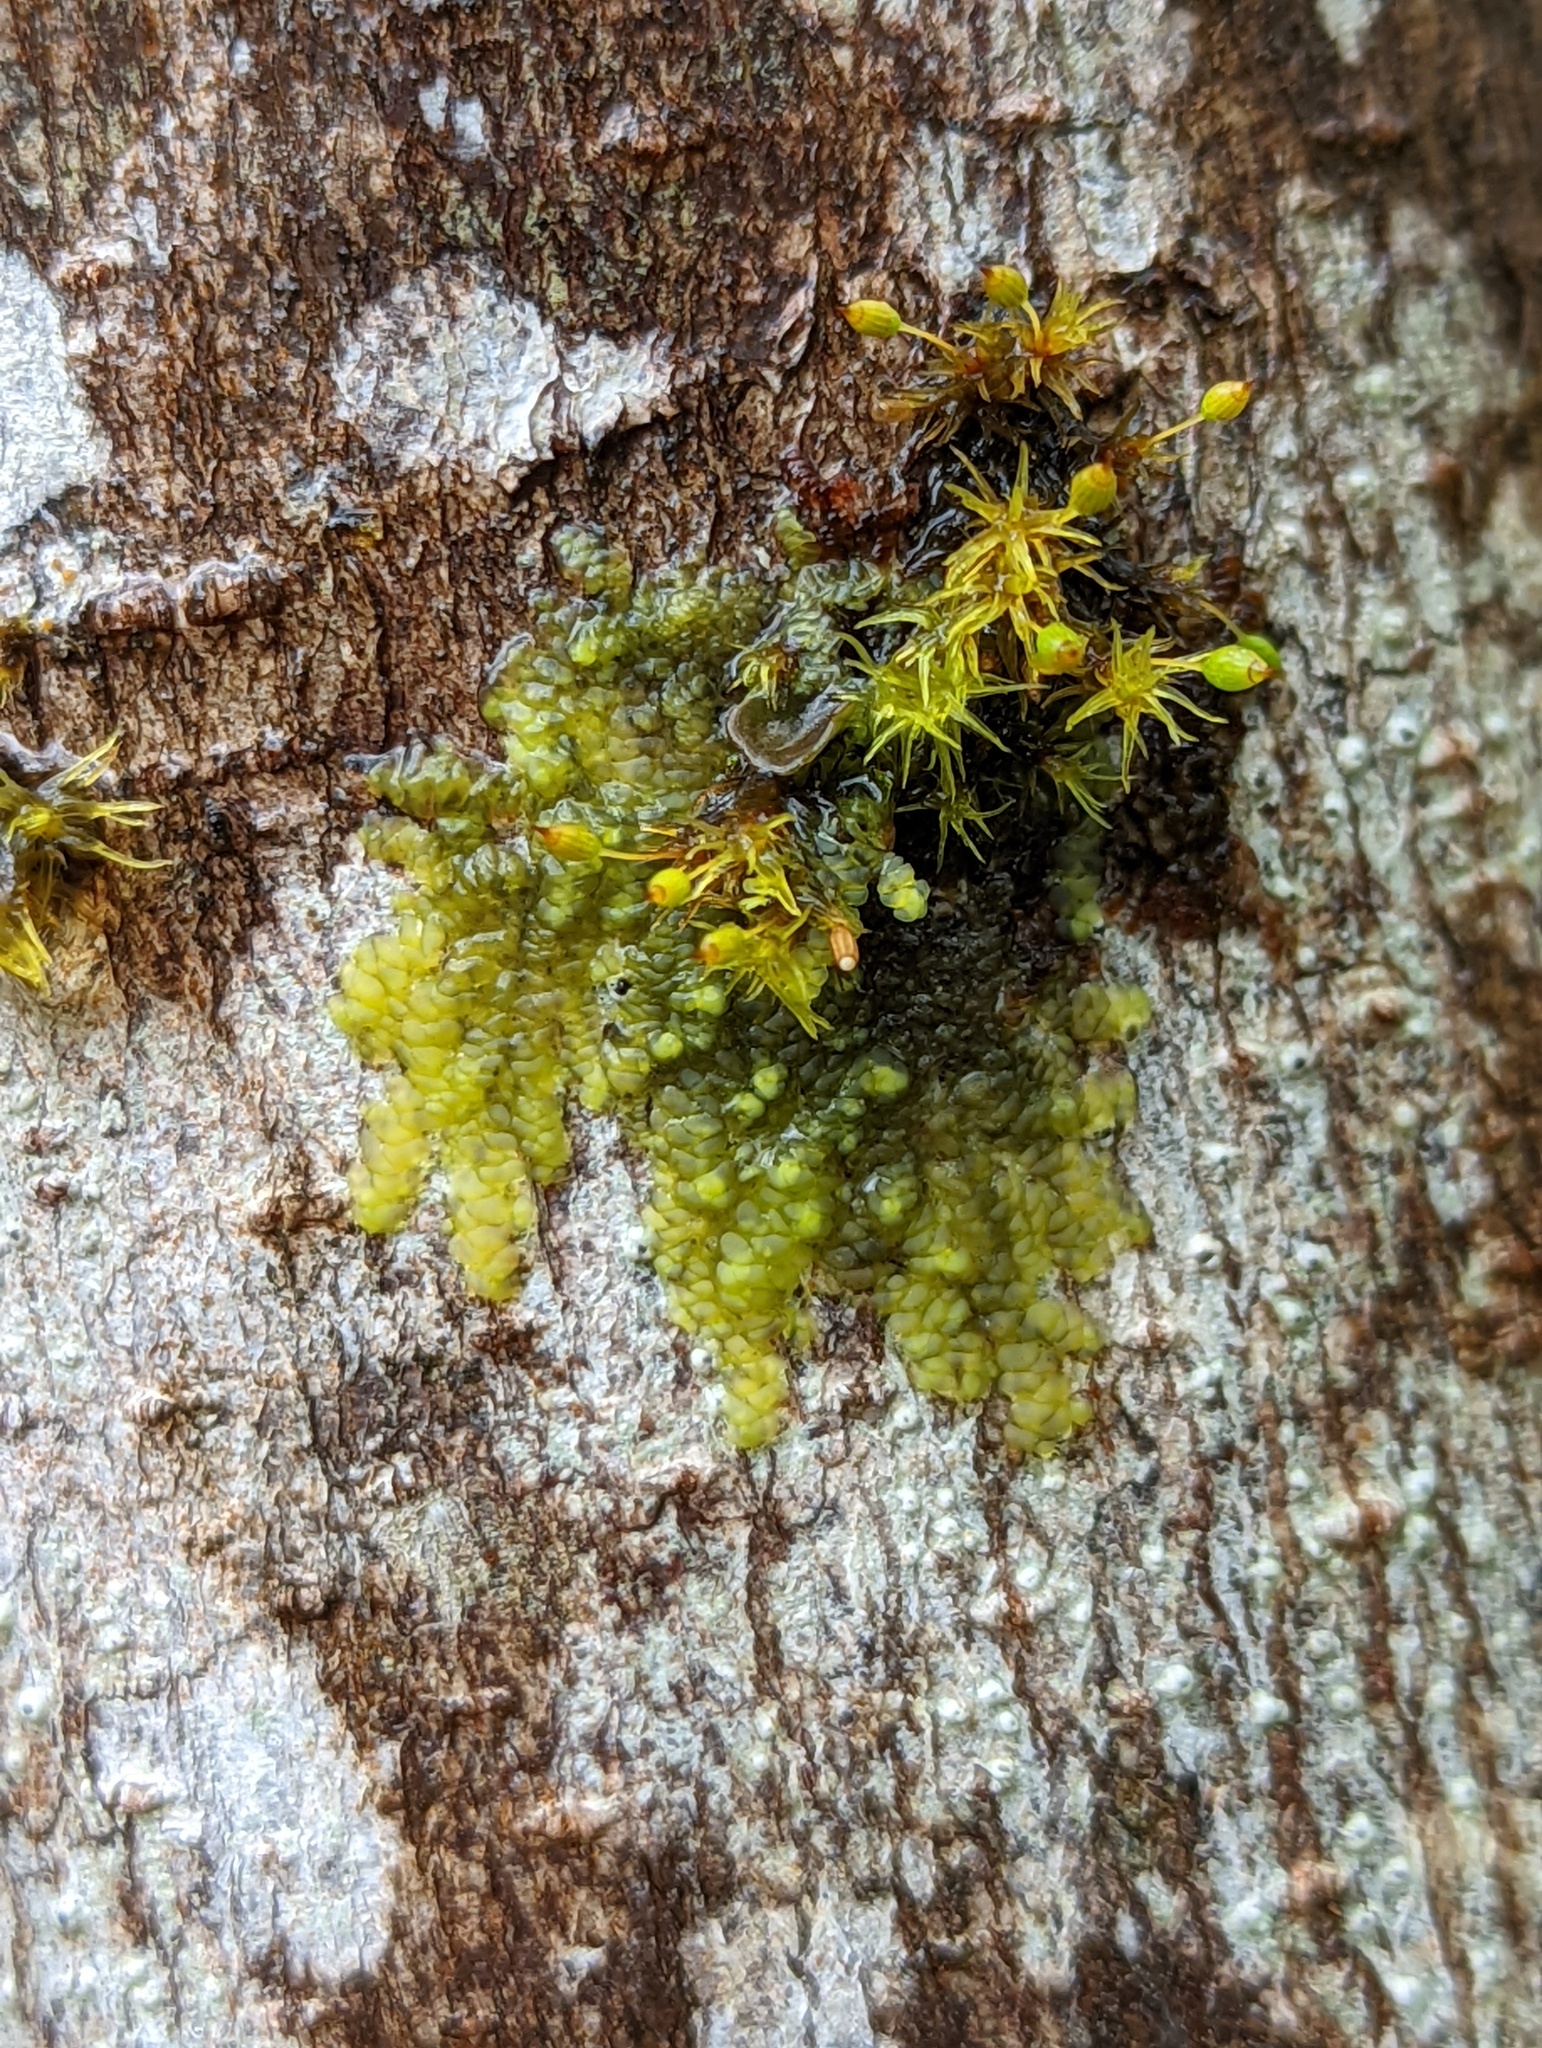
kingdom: Plantae
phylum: Marchantiophyta
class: Jungermanniopsida
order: Porellales
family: Radulaceae
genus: Radula
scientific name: Radula complanata
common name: Flat-leaved scalewort
